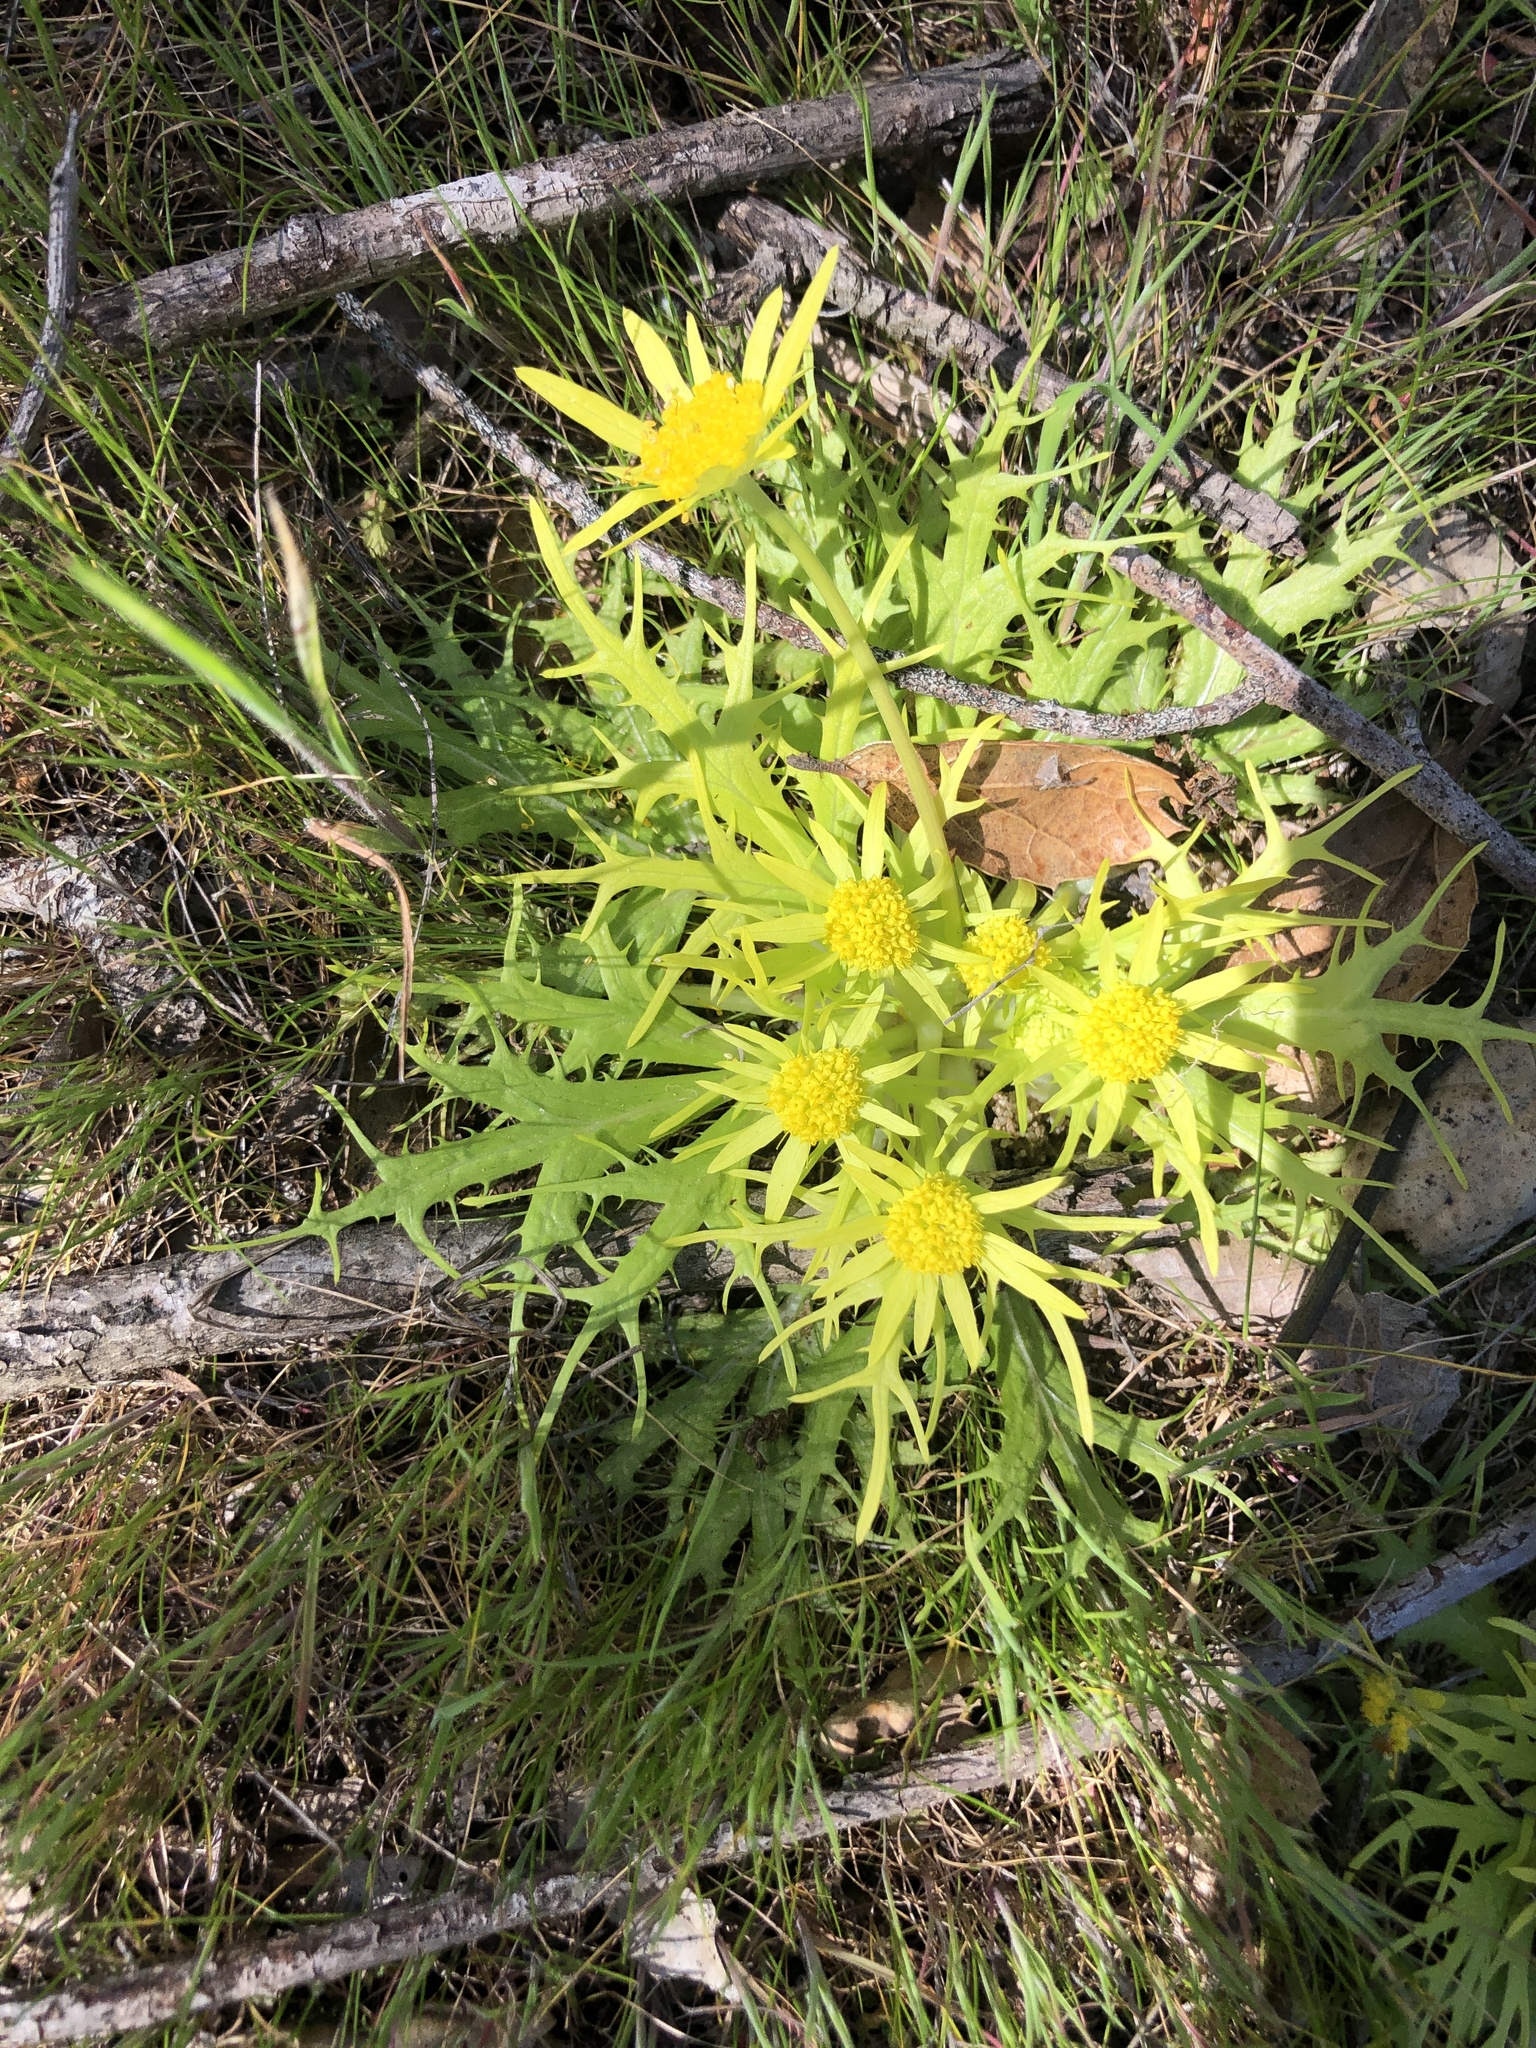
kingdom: Plantae
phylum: Tracheophyta
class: Magnoliopsida
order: Apiales
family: Apiaceae
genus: Sanicula
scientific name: Sanicula arctopoides
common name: Footsteps-of-spring
